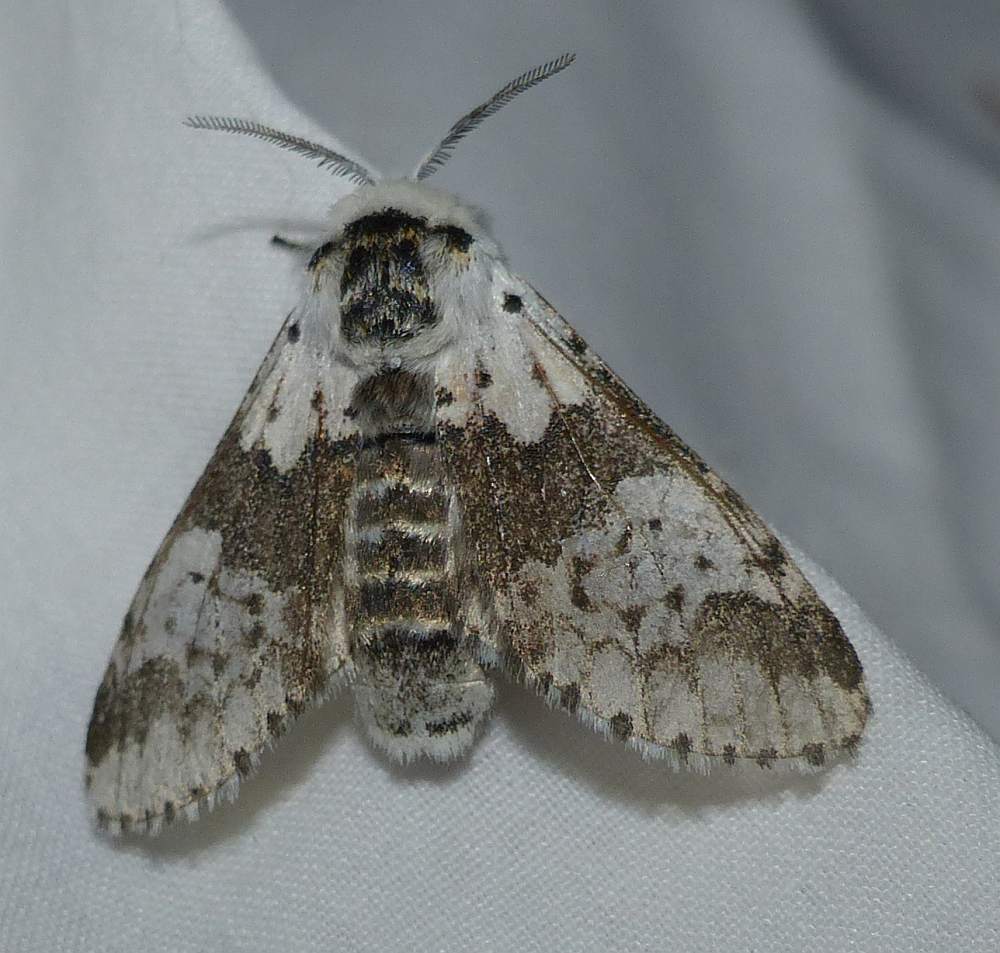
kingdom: Animalia
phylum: Arthropoda
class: Insecta
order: Lepidoptera
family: Notodontidae
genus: Furcula
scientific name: Furcula borealis
